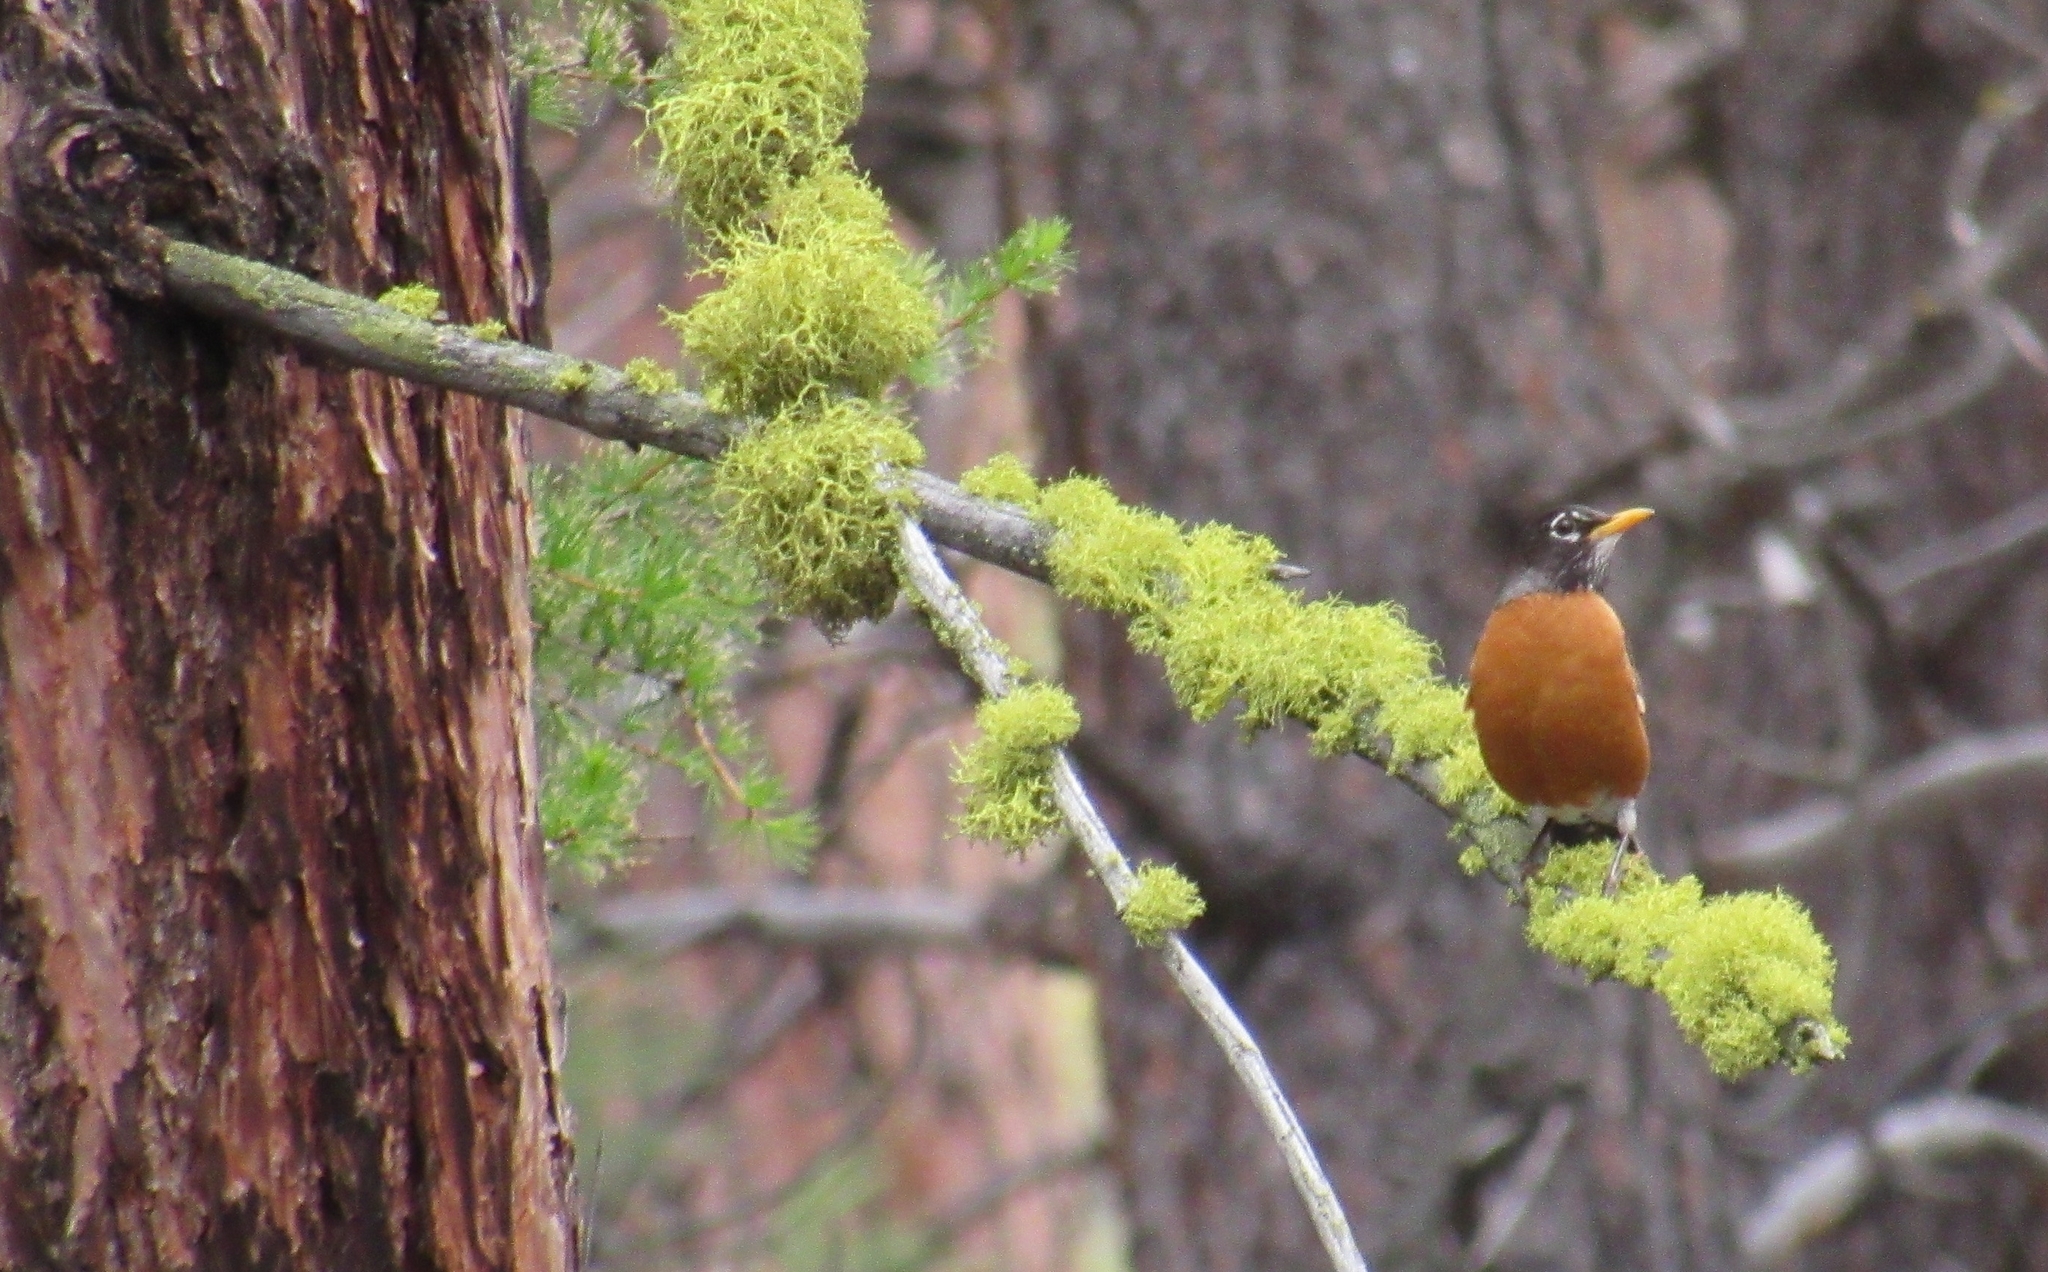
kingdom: Animalia
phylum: Chordata
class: Aves
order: Passeriformes
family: Turdidae
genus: Turdus
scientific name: Turdus migratorius
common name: American robin
